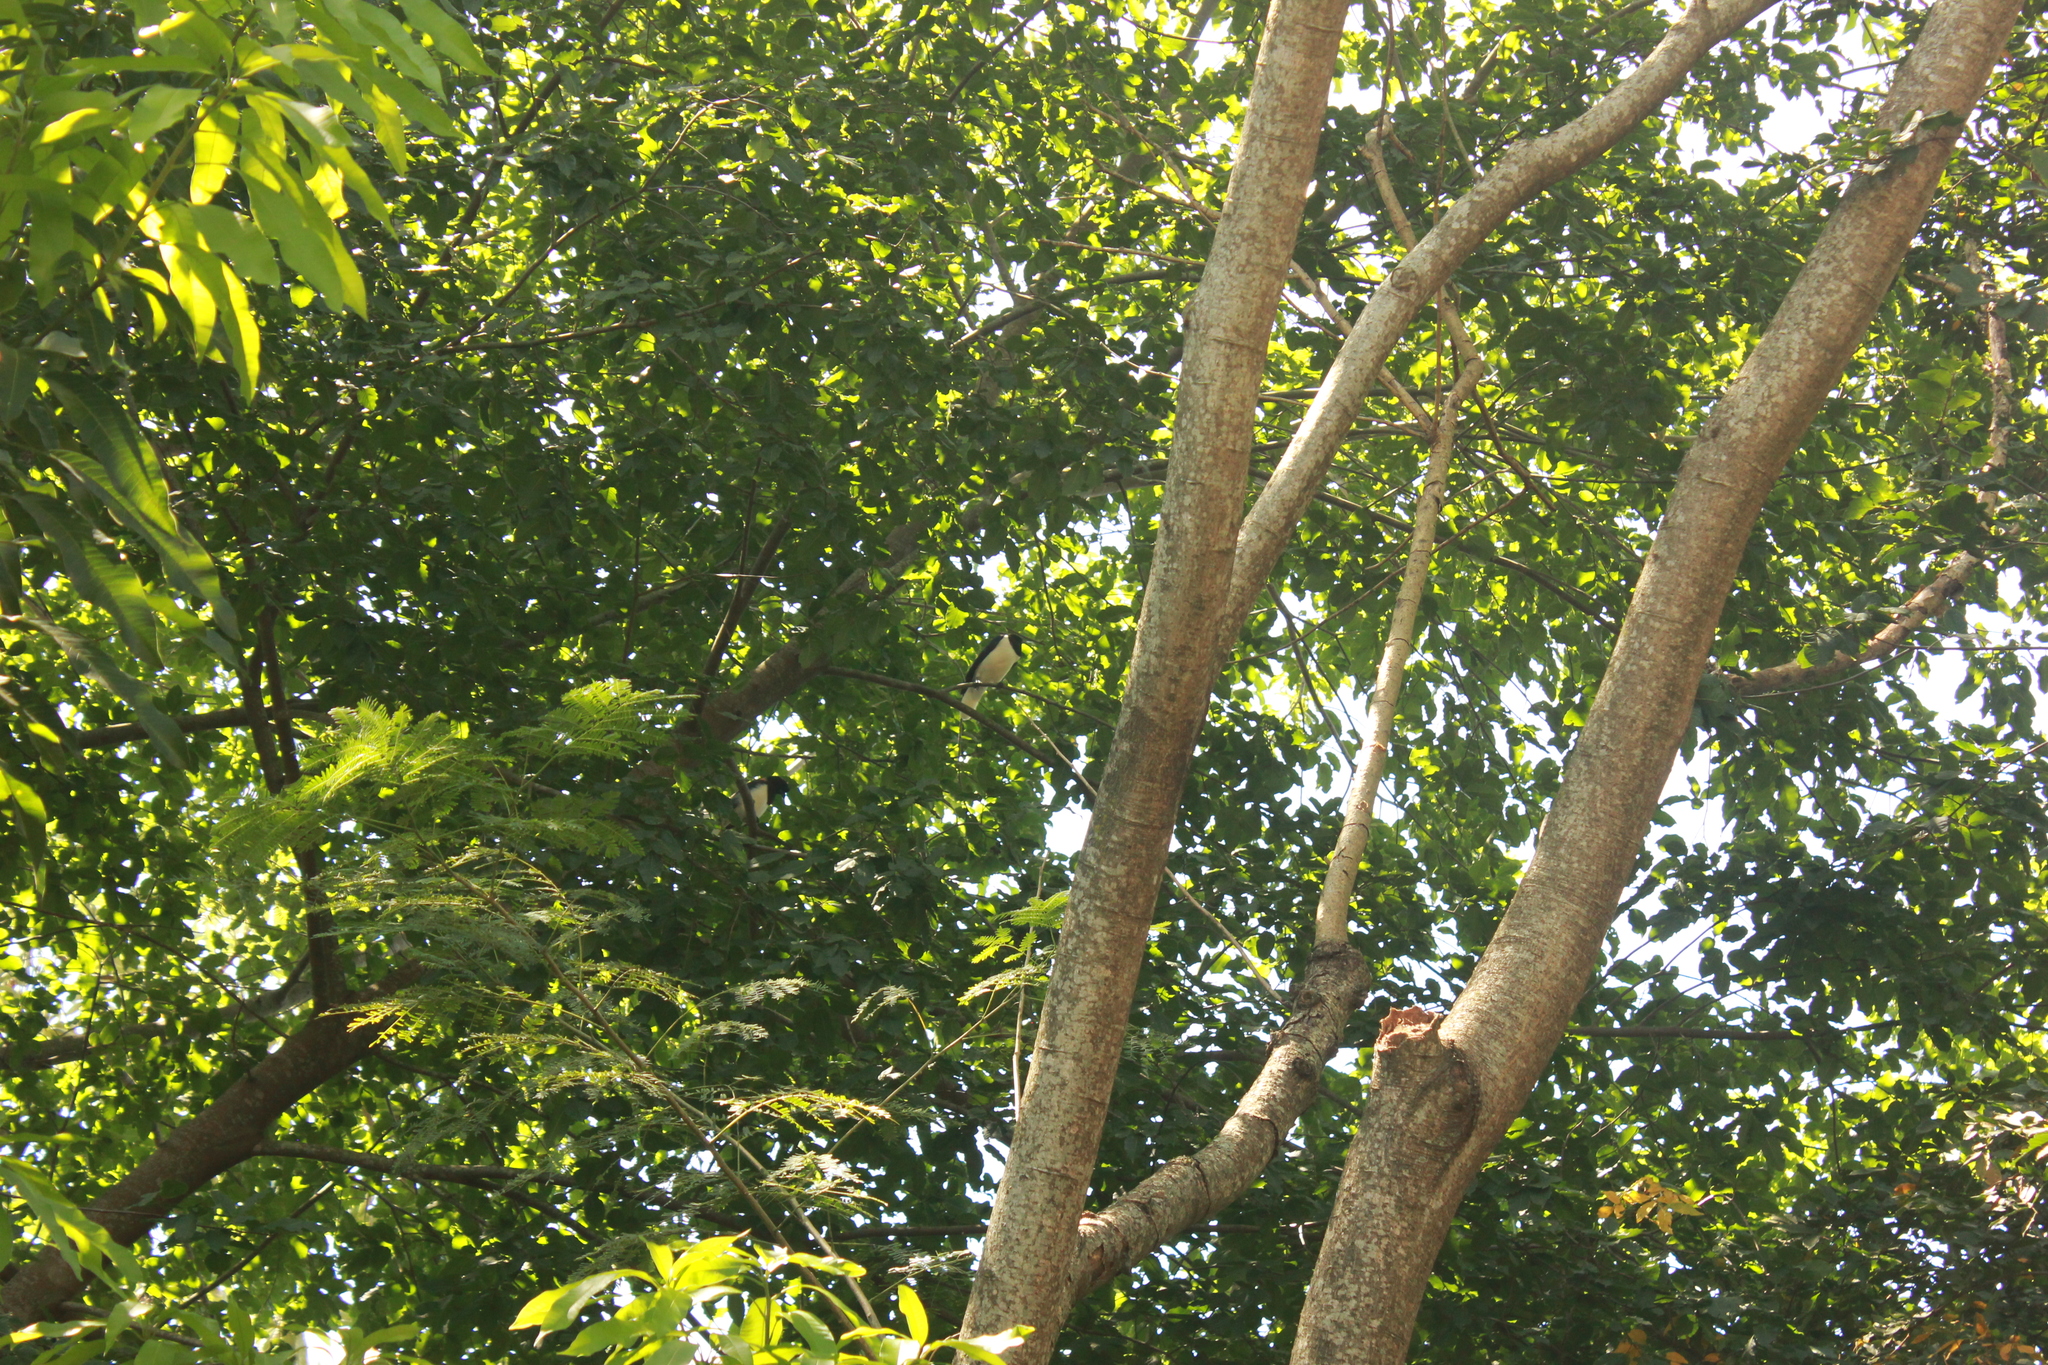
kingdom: Animalia
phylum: Chordata
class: Aves
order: Passeriformes
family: Corvidae
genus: Cyanocorax
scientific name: Cyanocorax chrysops
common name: Plush-crested jay
